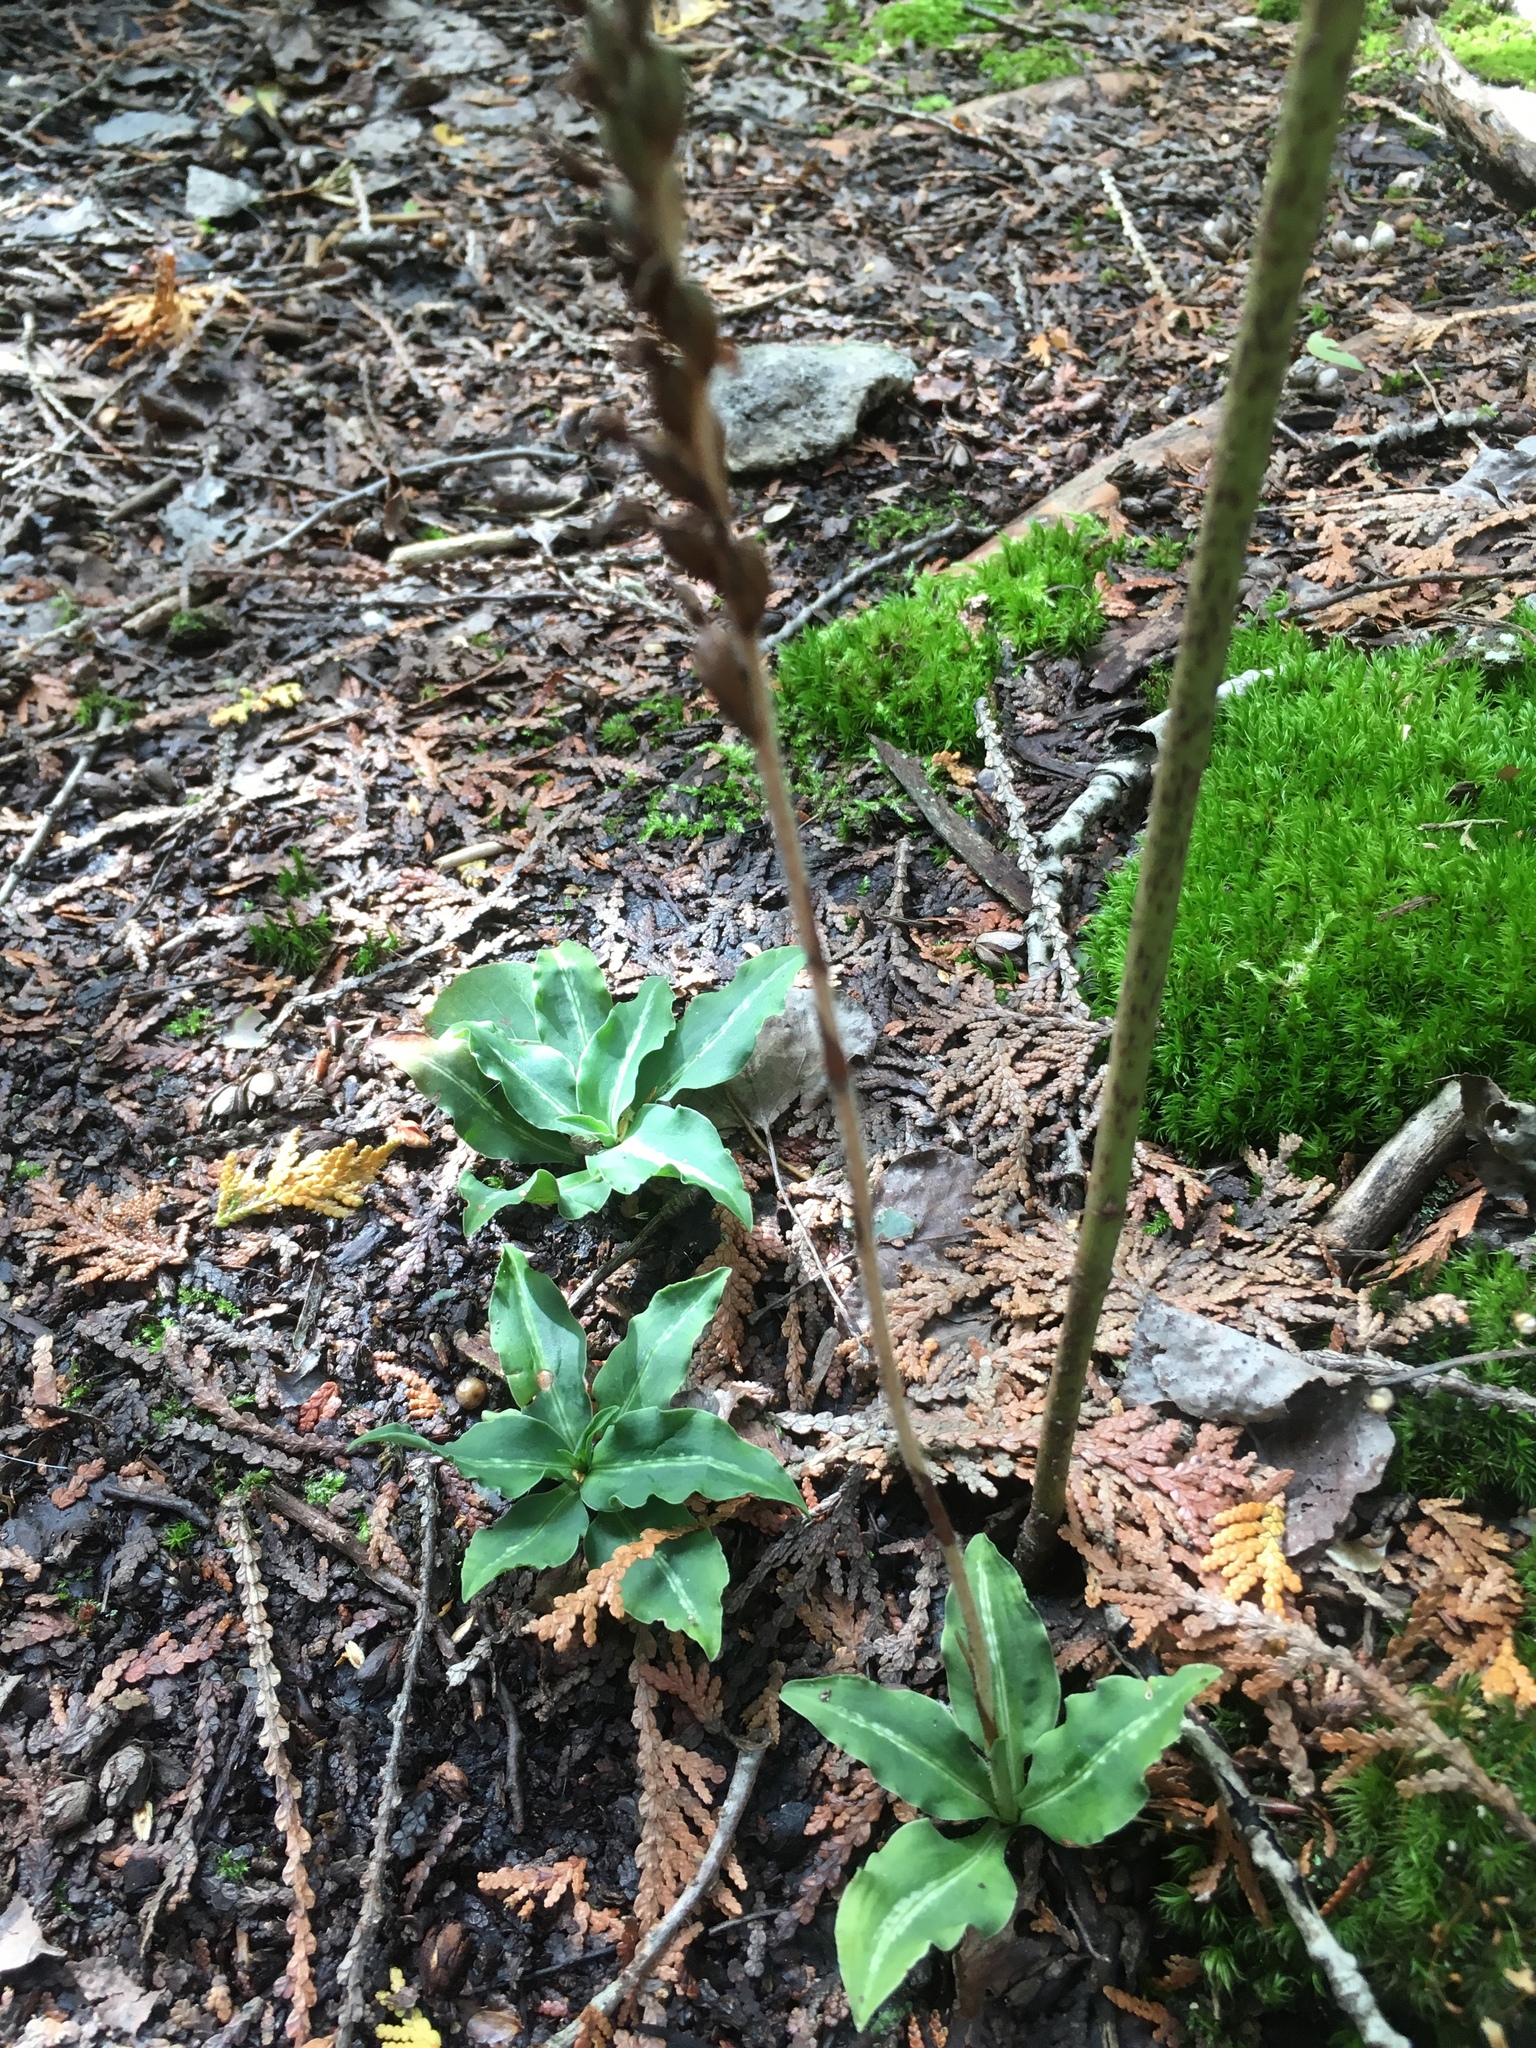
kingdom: Plantae
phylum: Tracheophyta
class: Liliopsida
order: Asparagales
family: Orchidaceae
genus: Goodyera
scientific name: Goodyera oblongifolia
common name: Giant rattlesnake-plantain
